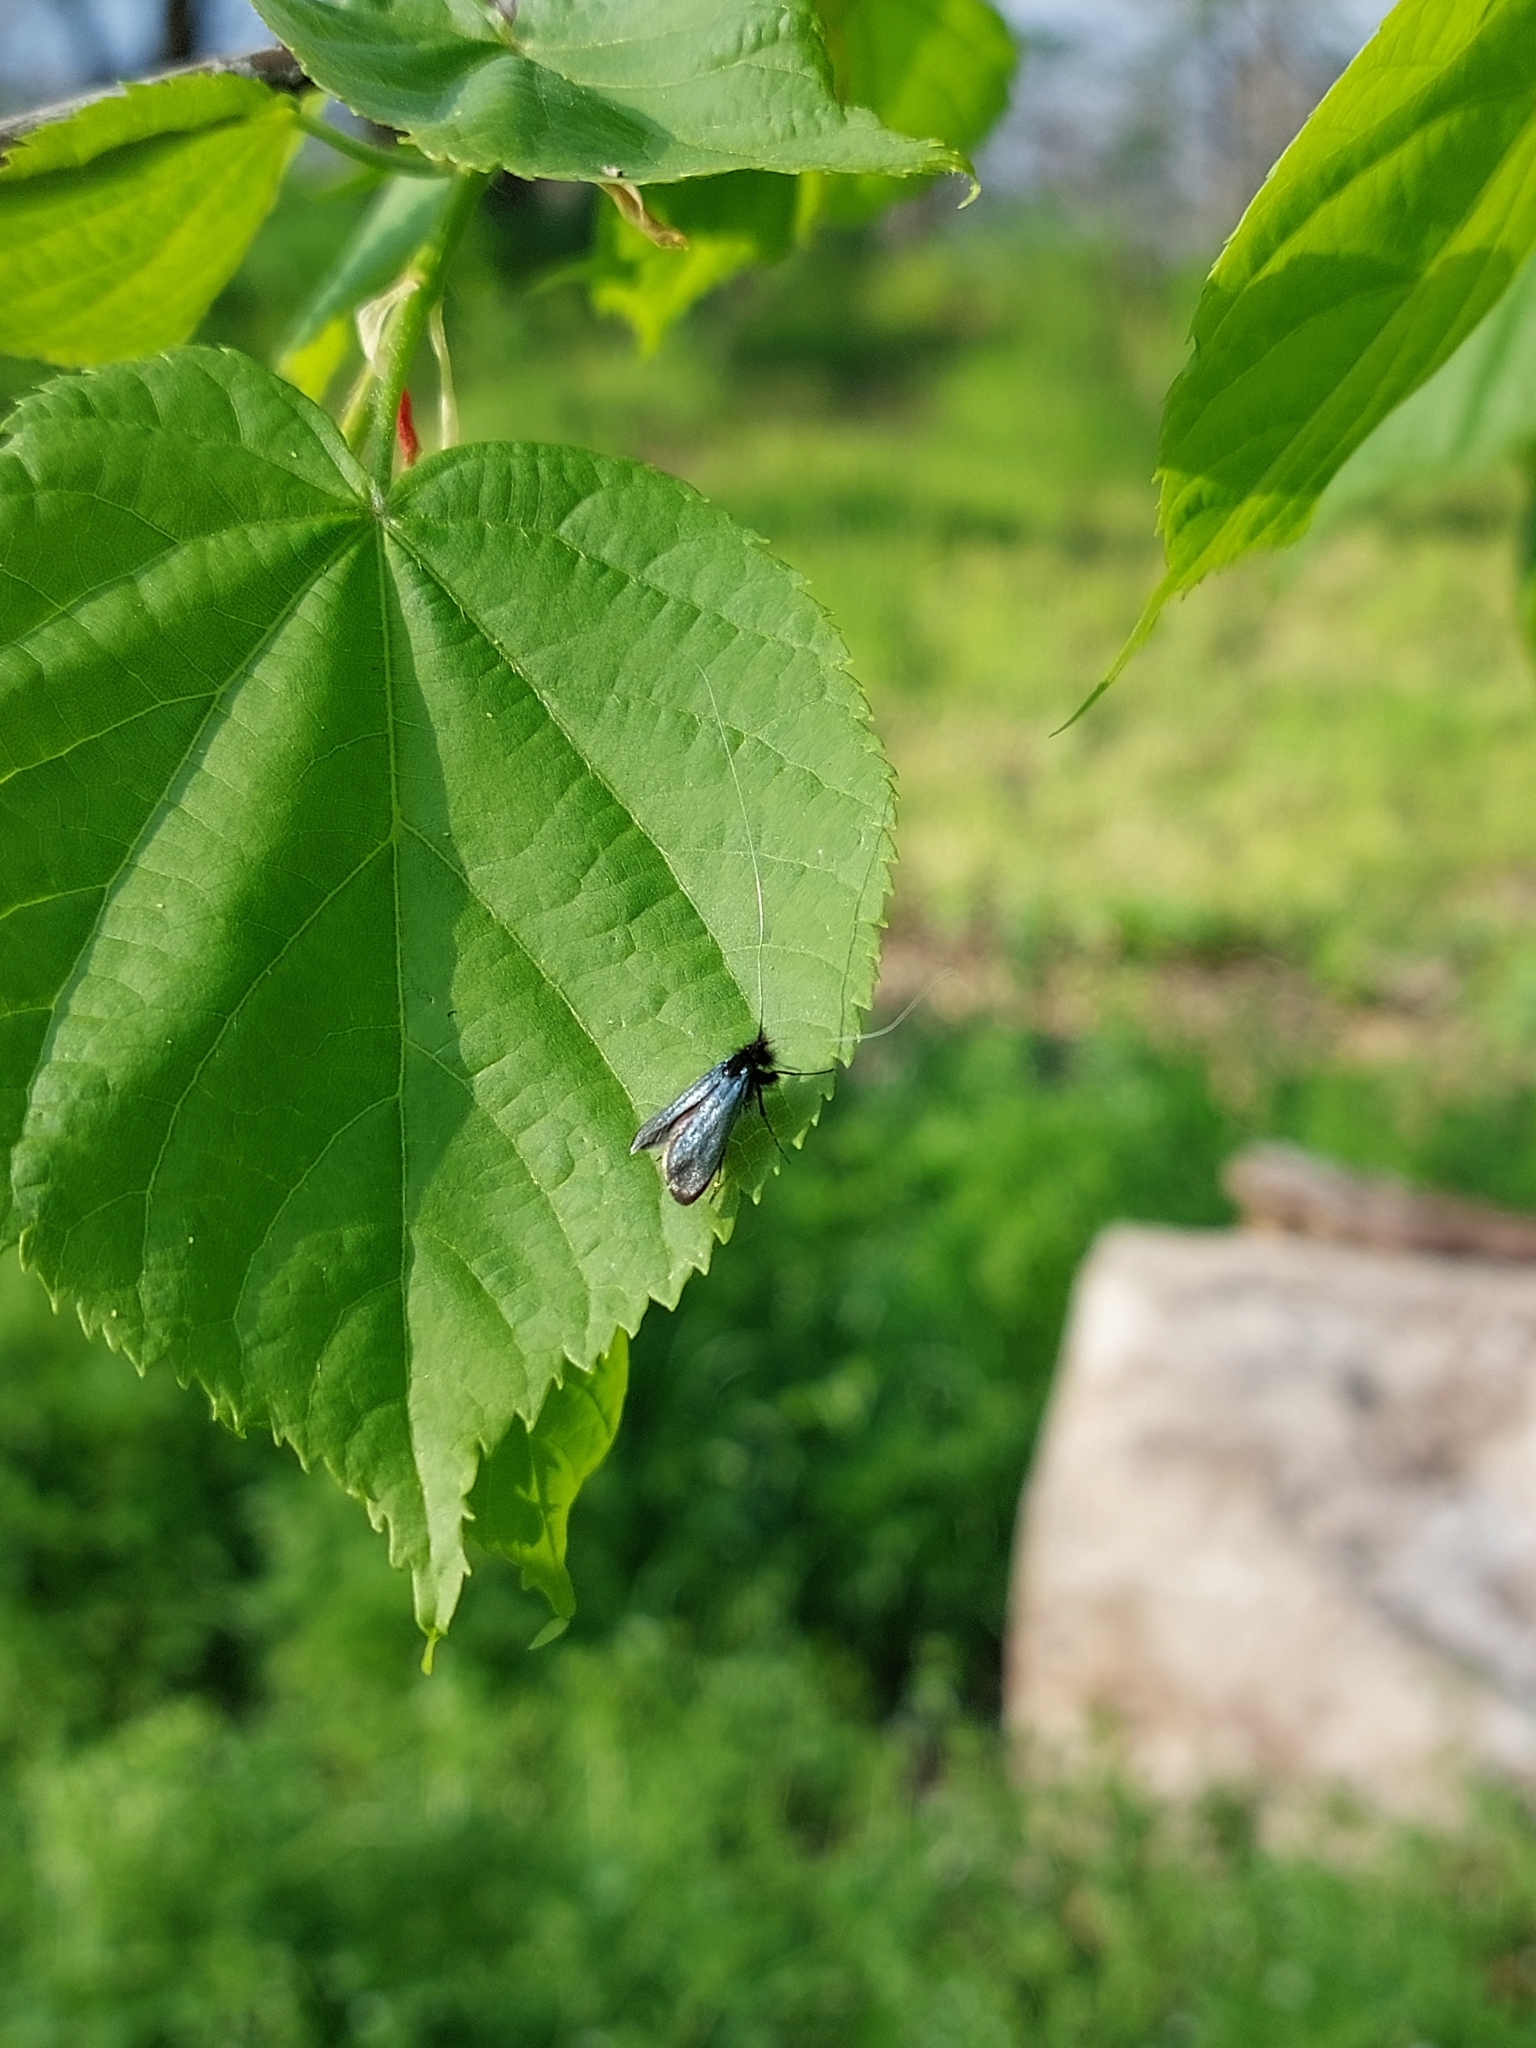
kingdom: Animalia
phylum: Arthropoda
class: Insecta
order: Lepidoptera
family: Adelidae
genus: Adela
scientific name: Adela viridella
